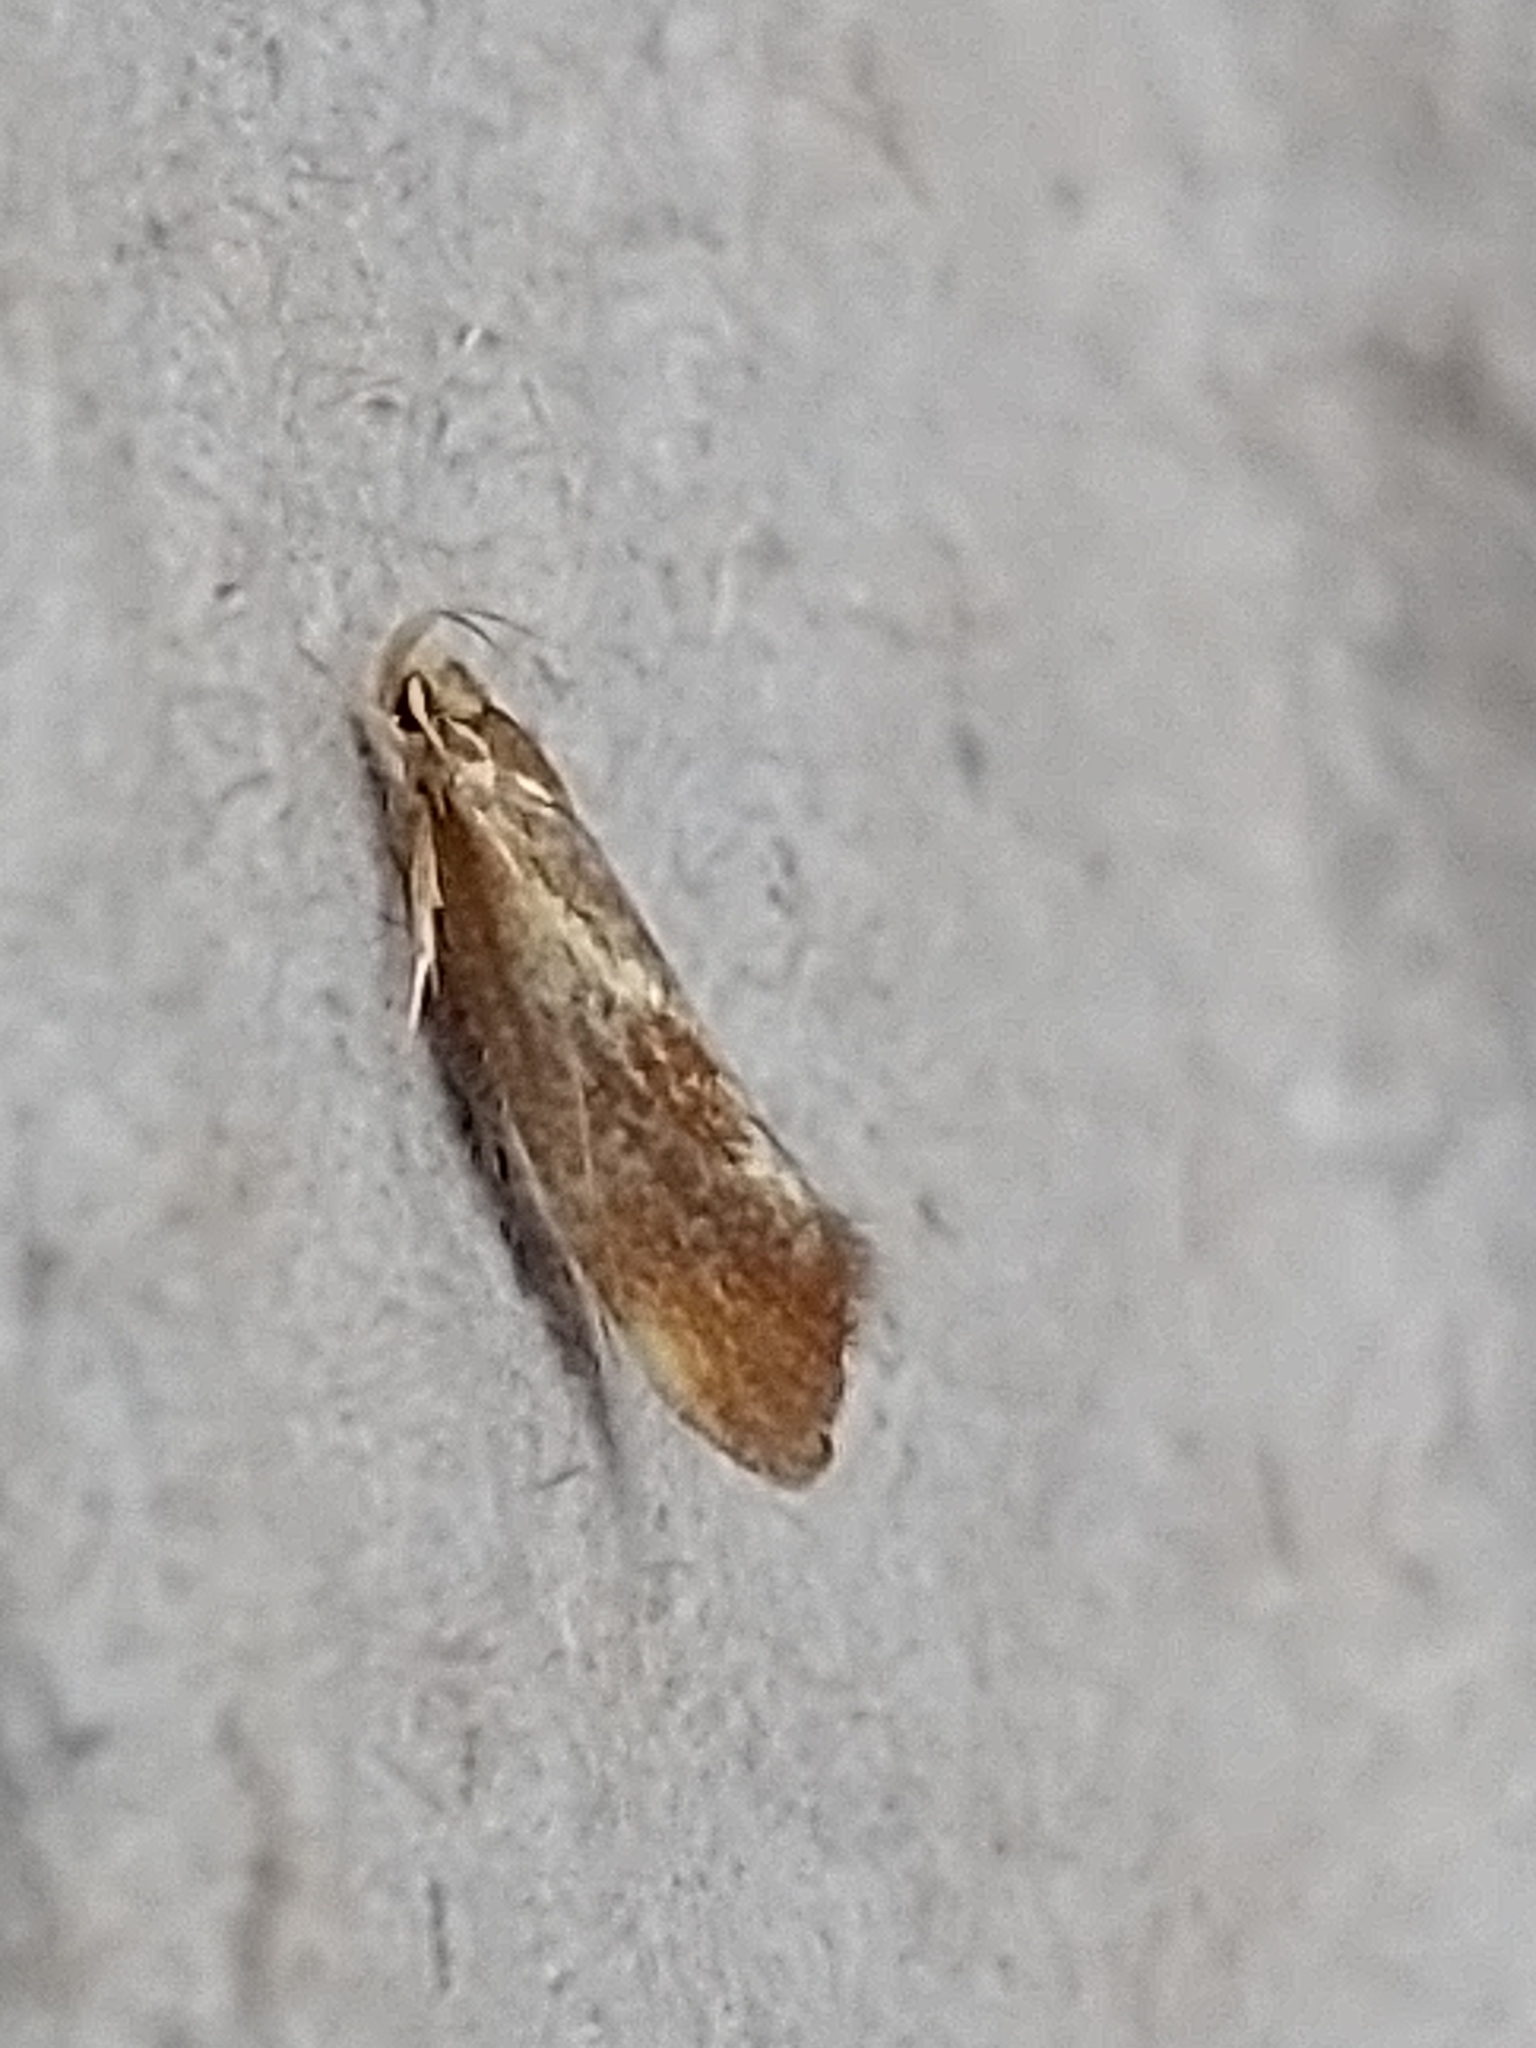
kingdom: Animalia
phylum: Arthropoda
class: Insecta
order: Lepidoptera
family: Oecophoridae
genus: Borkhausenia
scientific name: Borkhausenia italica
